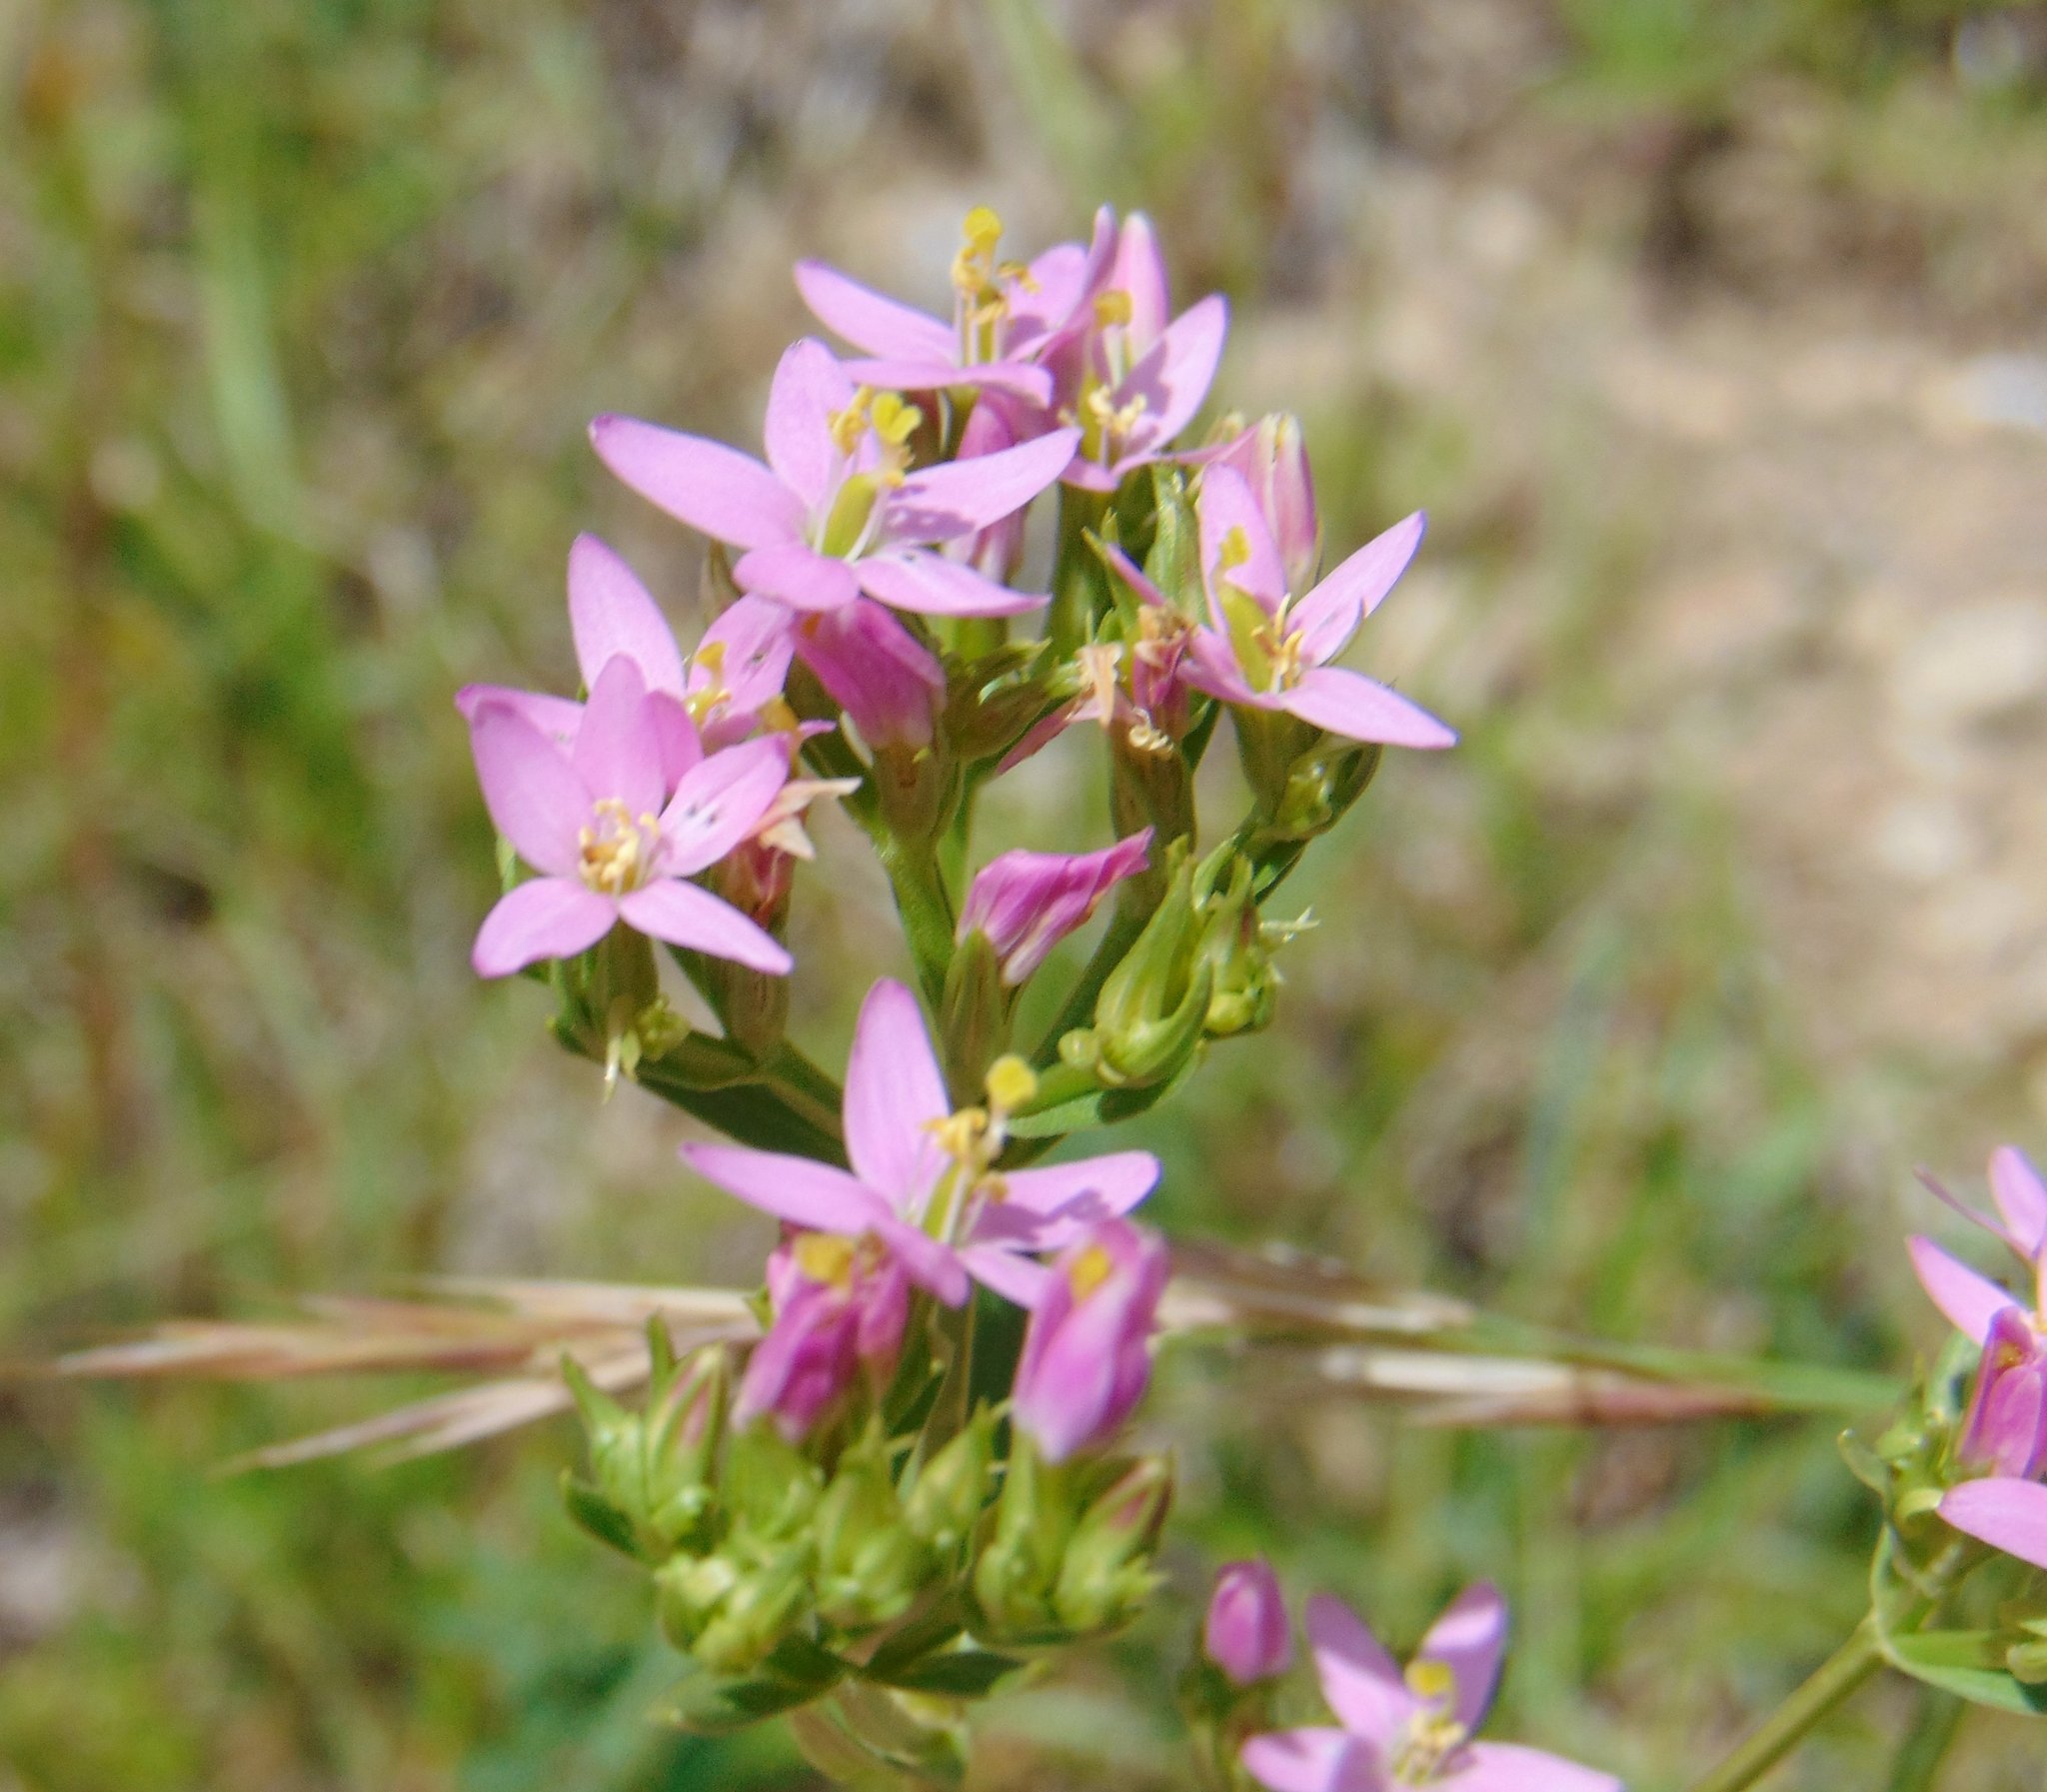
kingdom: Plantae
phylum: Tracheophyta
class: Magnoliopsida
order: Gentianales
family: Gentianaceae
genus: Centaurium
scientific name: Centaurium erythraea
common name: Common centaury
